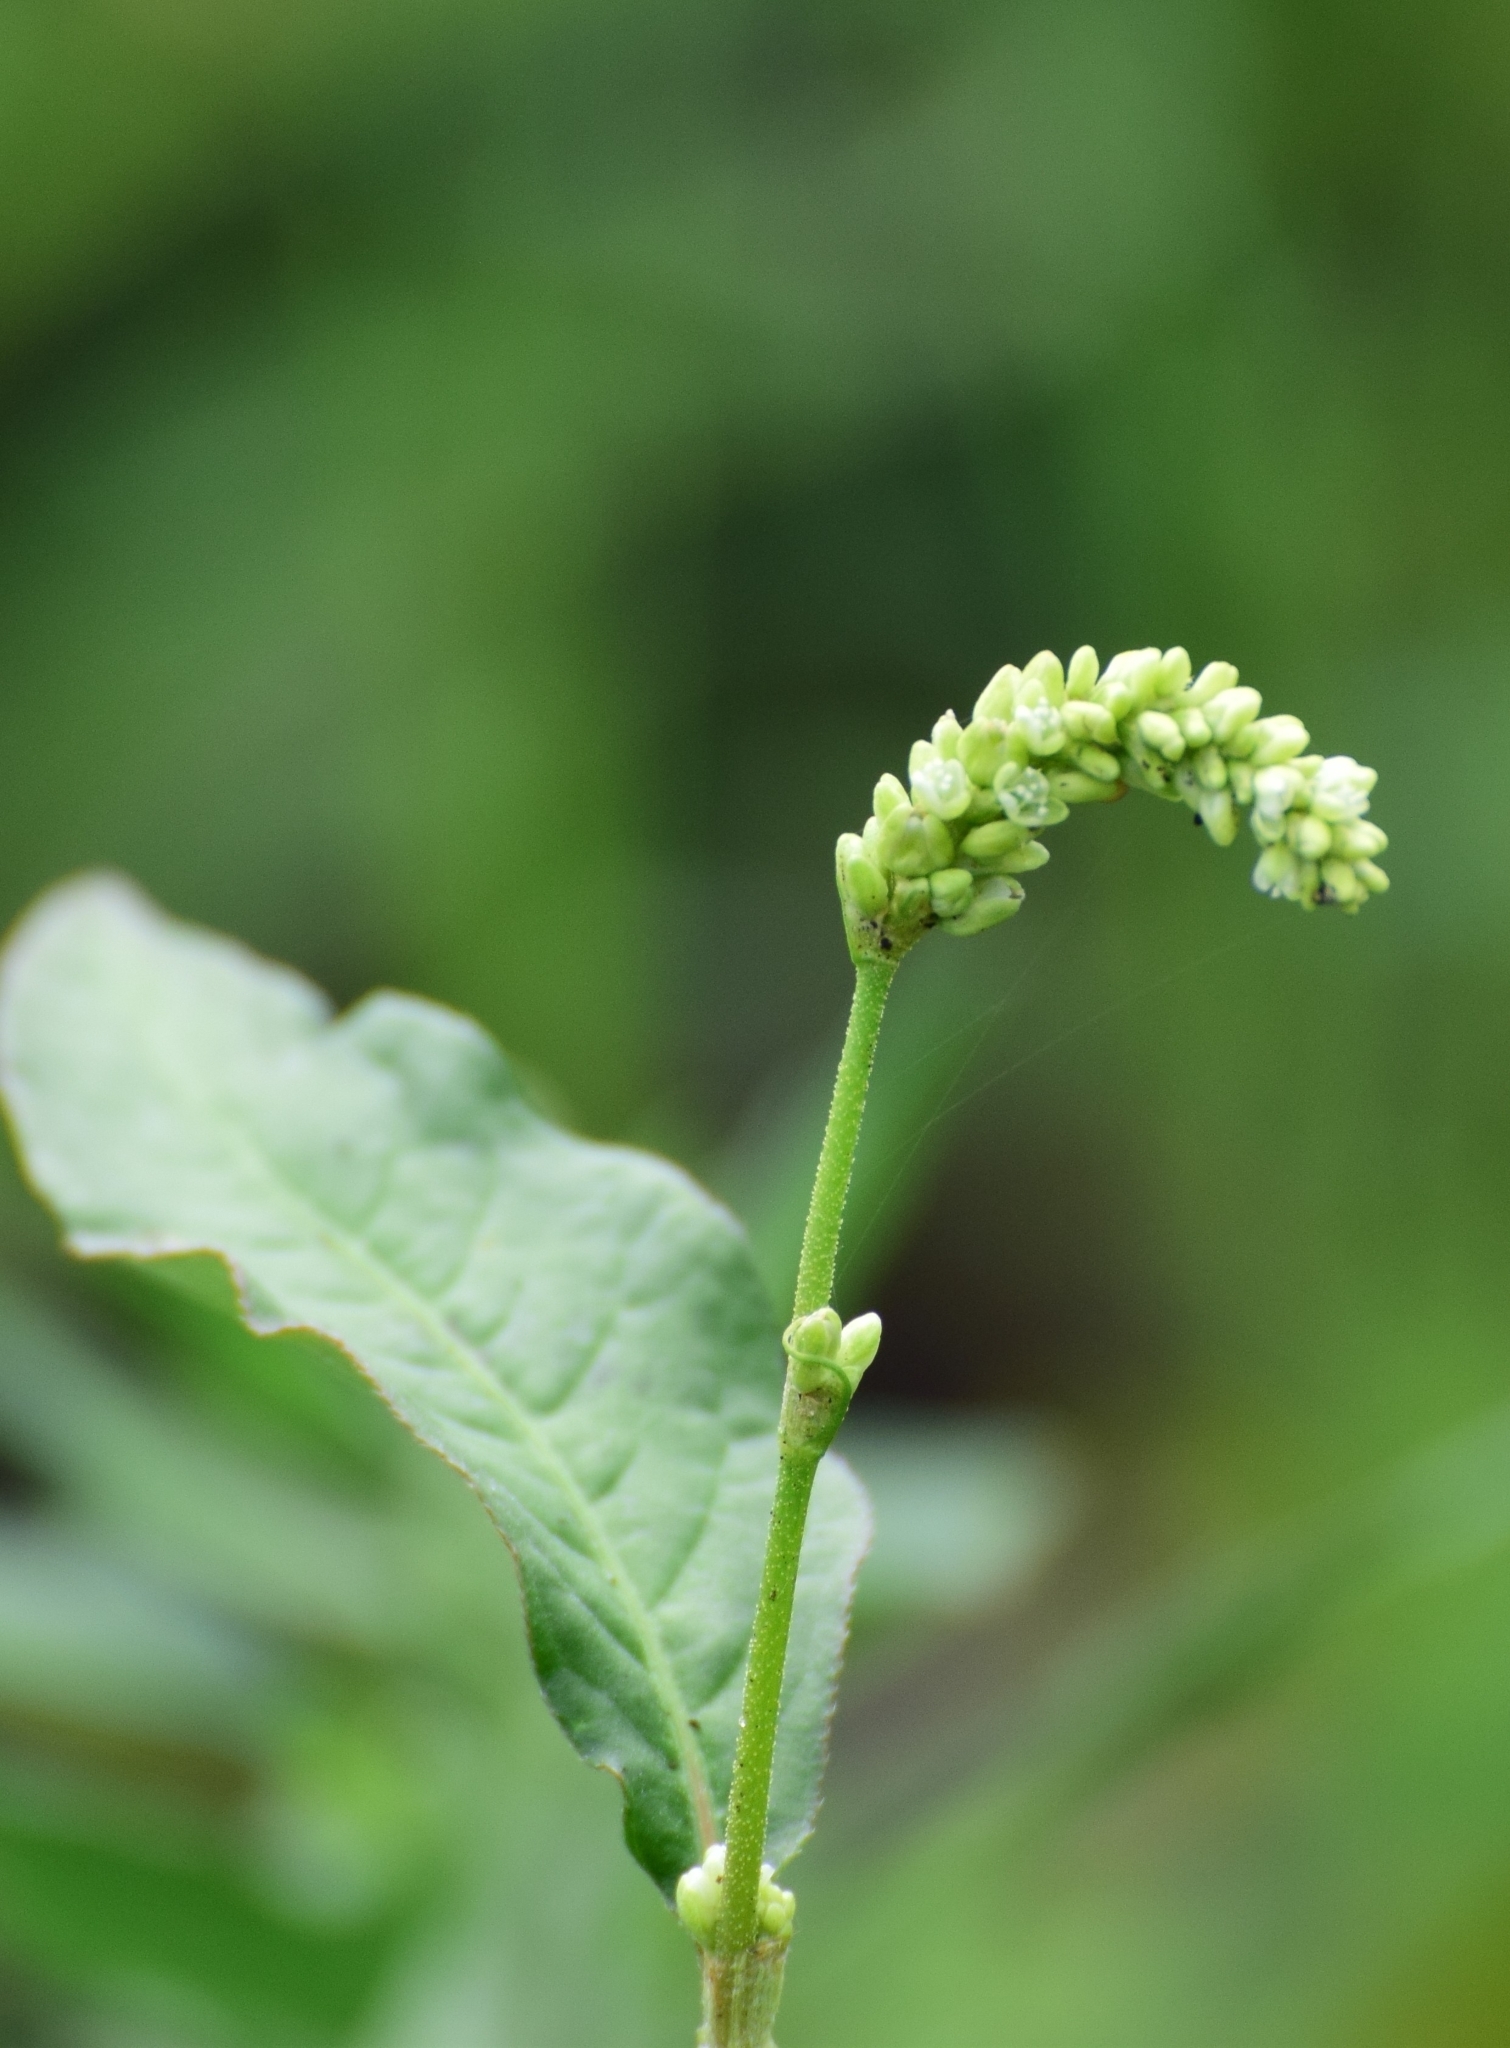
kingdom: Plantae
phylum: Tracheophyta
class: Magnoliopsida
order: Caryophyllales
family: Polygonaceae
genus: Persicaria
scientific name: Persicaria lapathifolia
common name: Curlytop knotweed
